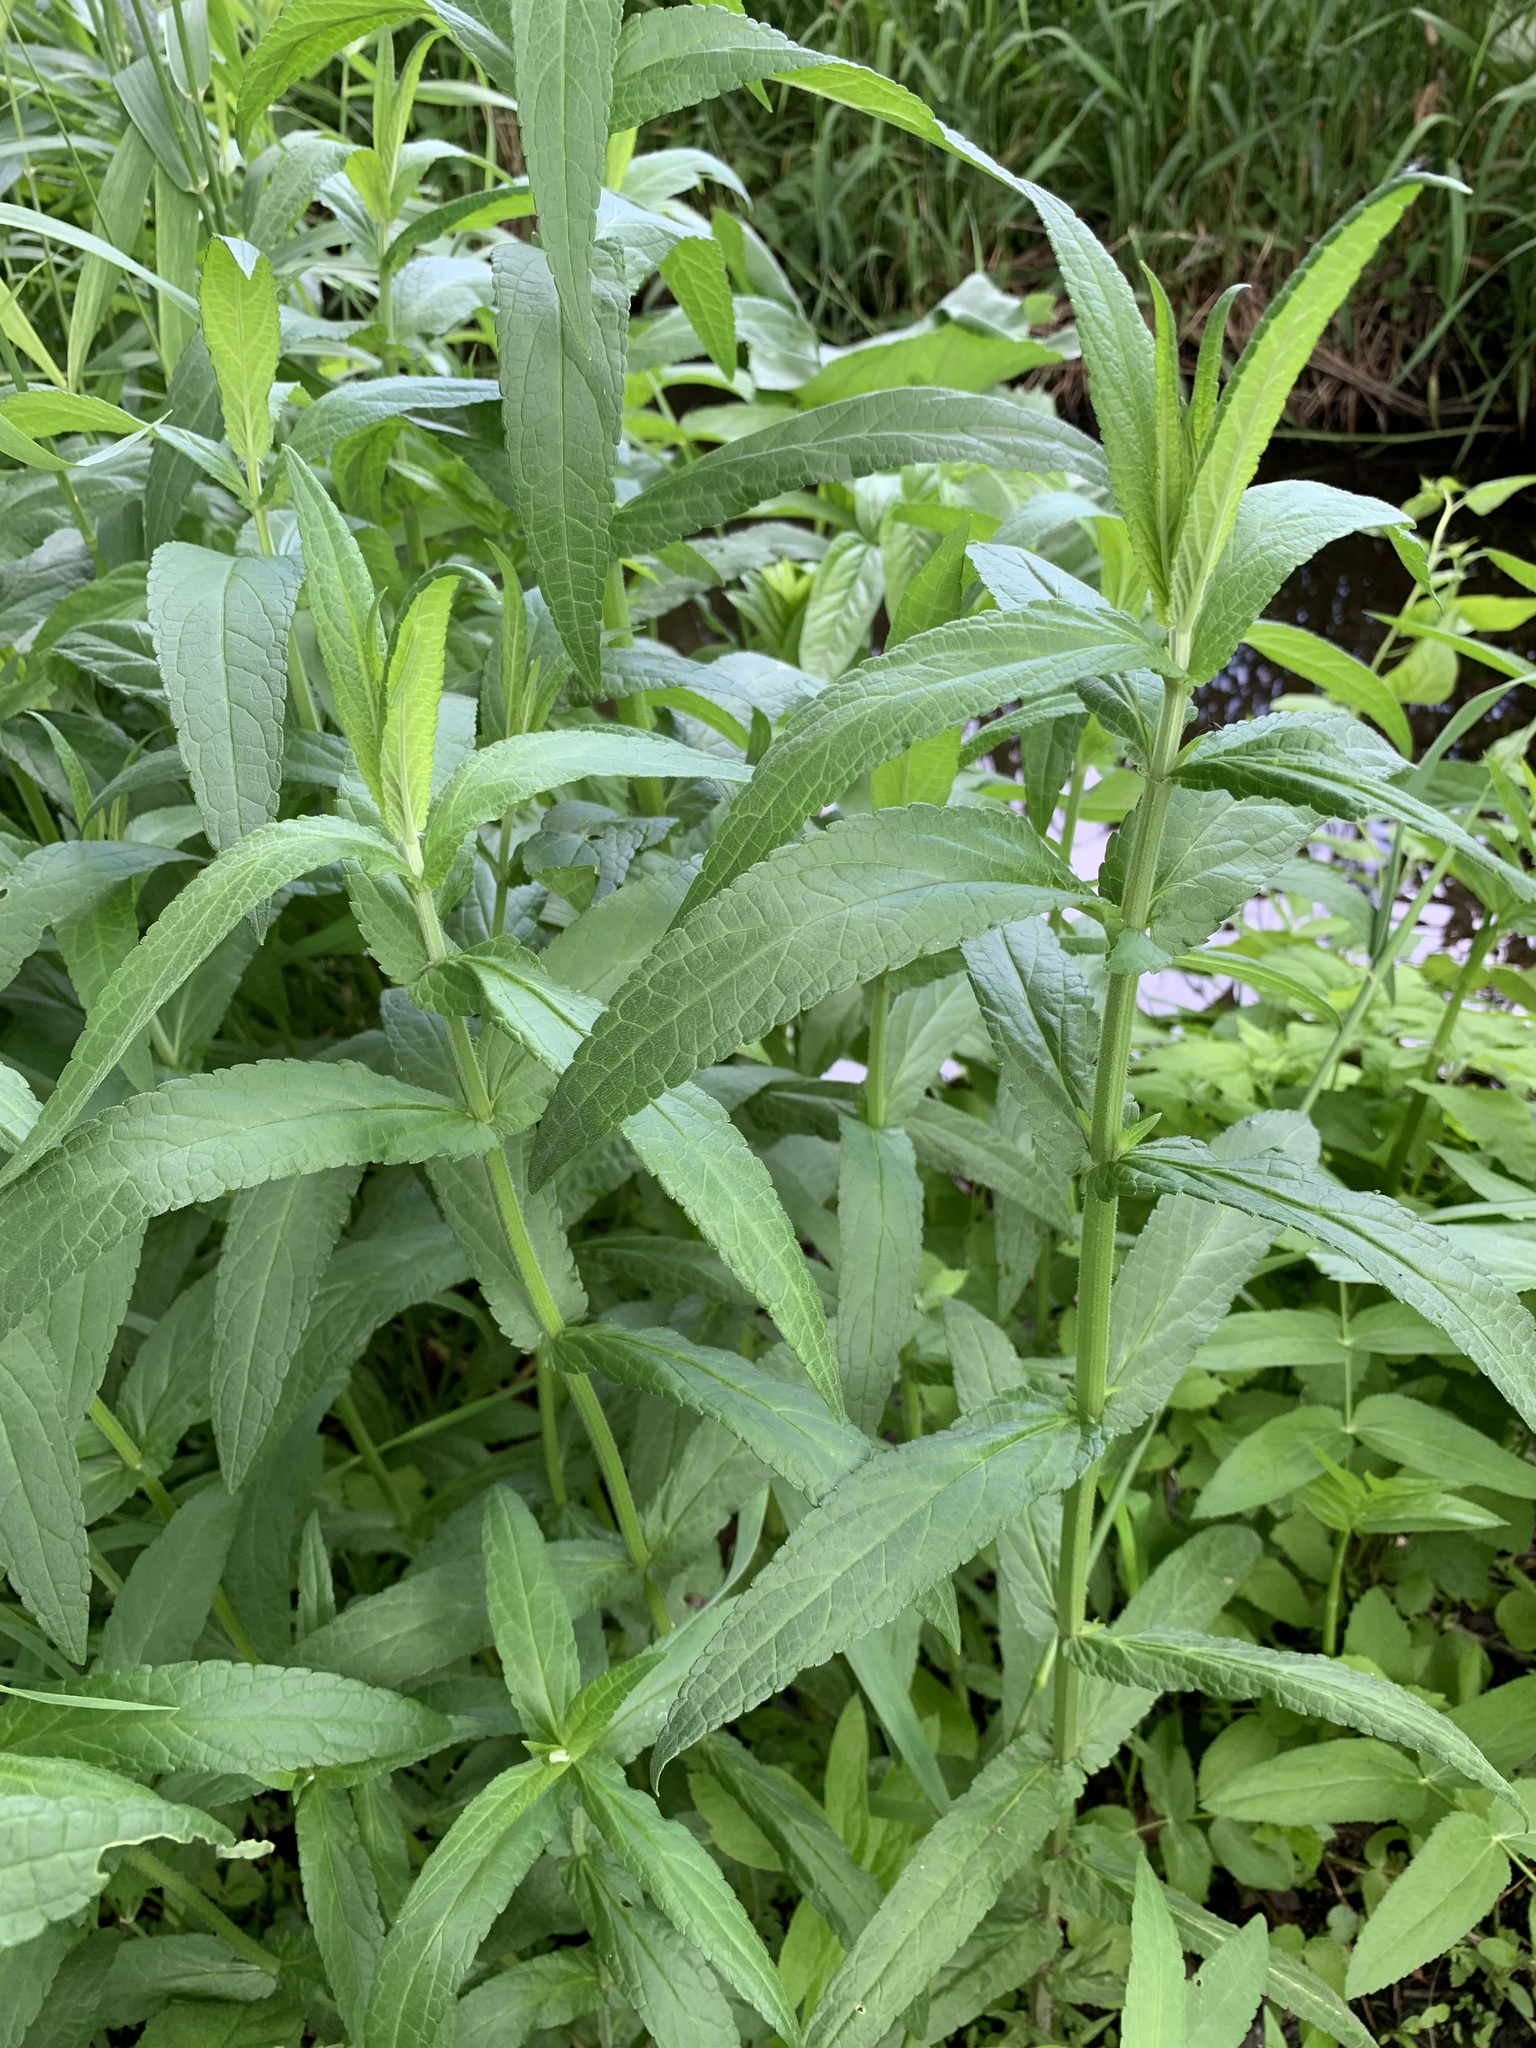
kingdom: Plantae
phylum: Tracheophyta
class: Magnoliopsida
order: Lamiales
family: Lamiaceae
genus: Stachys
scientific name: Stachys palustris
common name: Marsh woundwort
